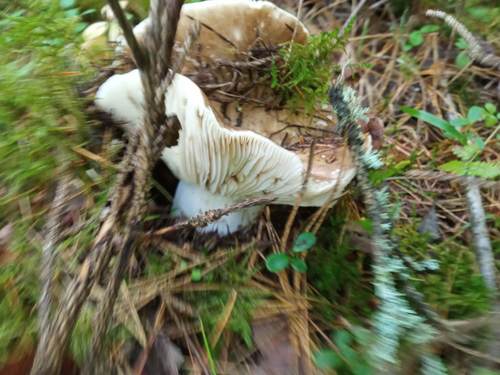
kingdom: Fungi
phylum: Basidiomycota
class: Agaricomycetes
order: Russulales
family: Russulaceae
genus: Russula
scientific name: Russula cerolens
